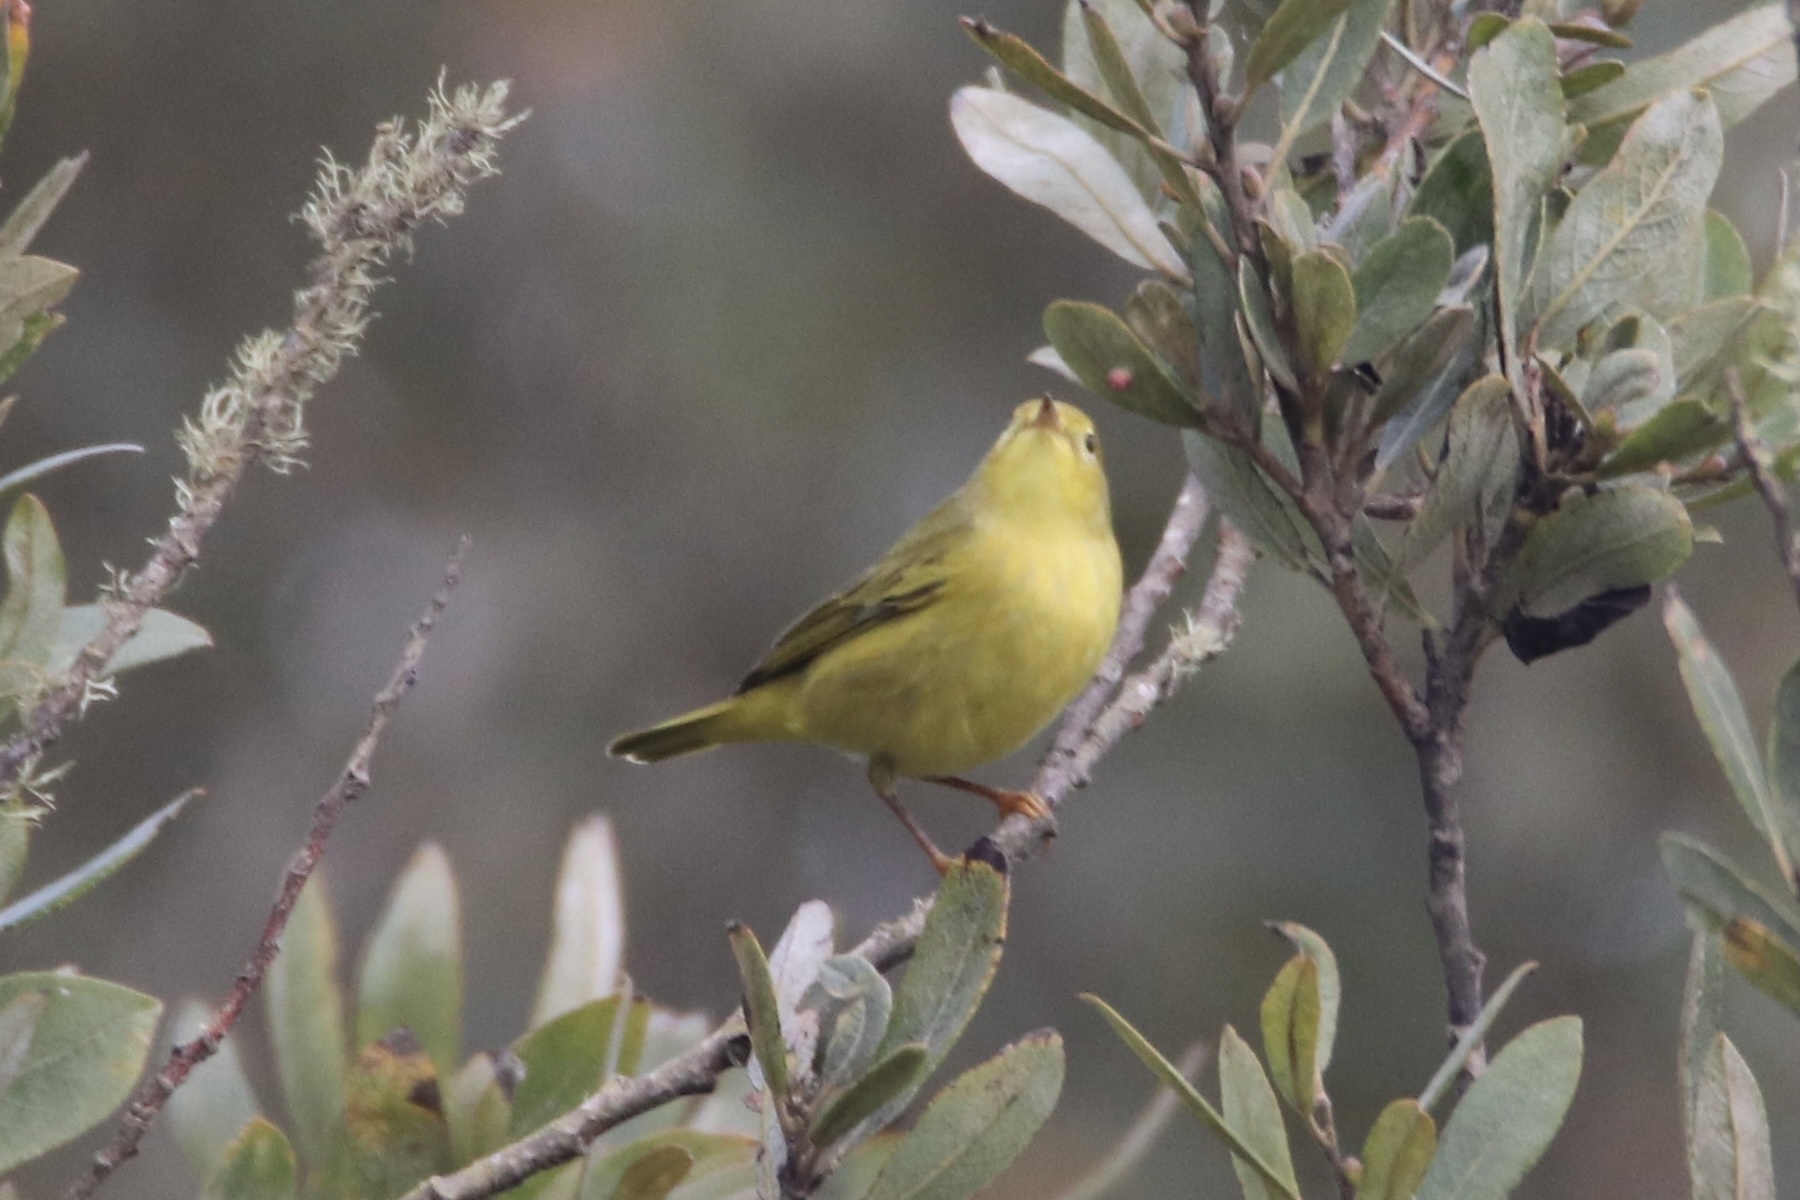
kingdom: Animalia
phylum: Chordata
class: Aves
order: Passeriformes
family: Parulidae
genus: Setophaga
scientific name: Setophaga petechia
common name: Yellow warbler
